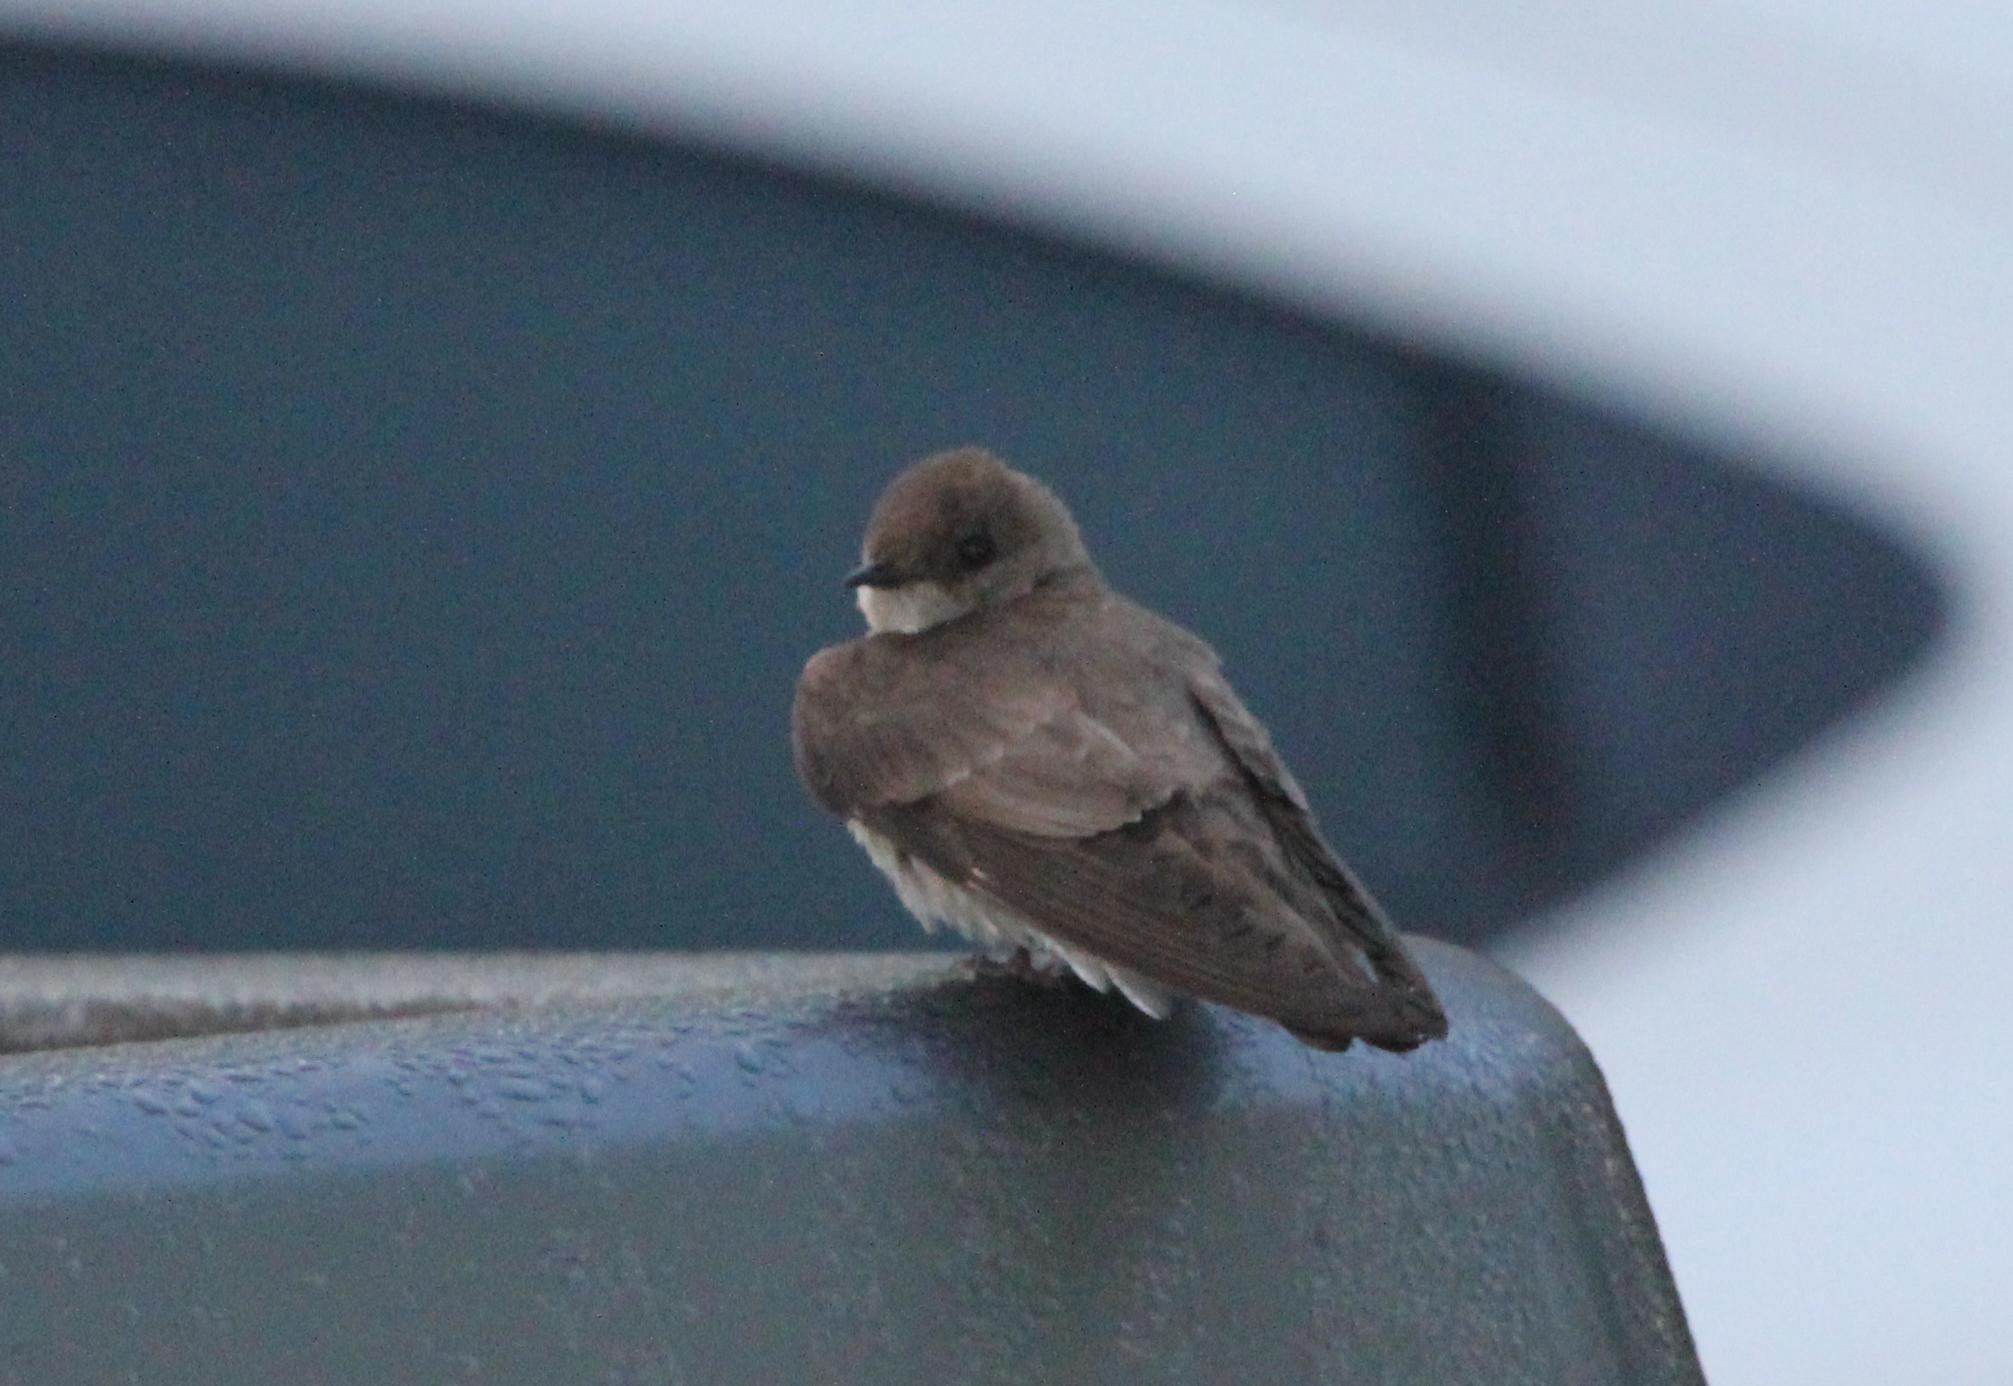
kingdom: Animalia
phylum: Chordata
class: Aves
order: Passeriformes
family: Hirundinidae
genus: Stelgidopteryx
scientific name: Stelgidopteryx serripennis
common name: Northern rough-winged swallow
